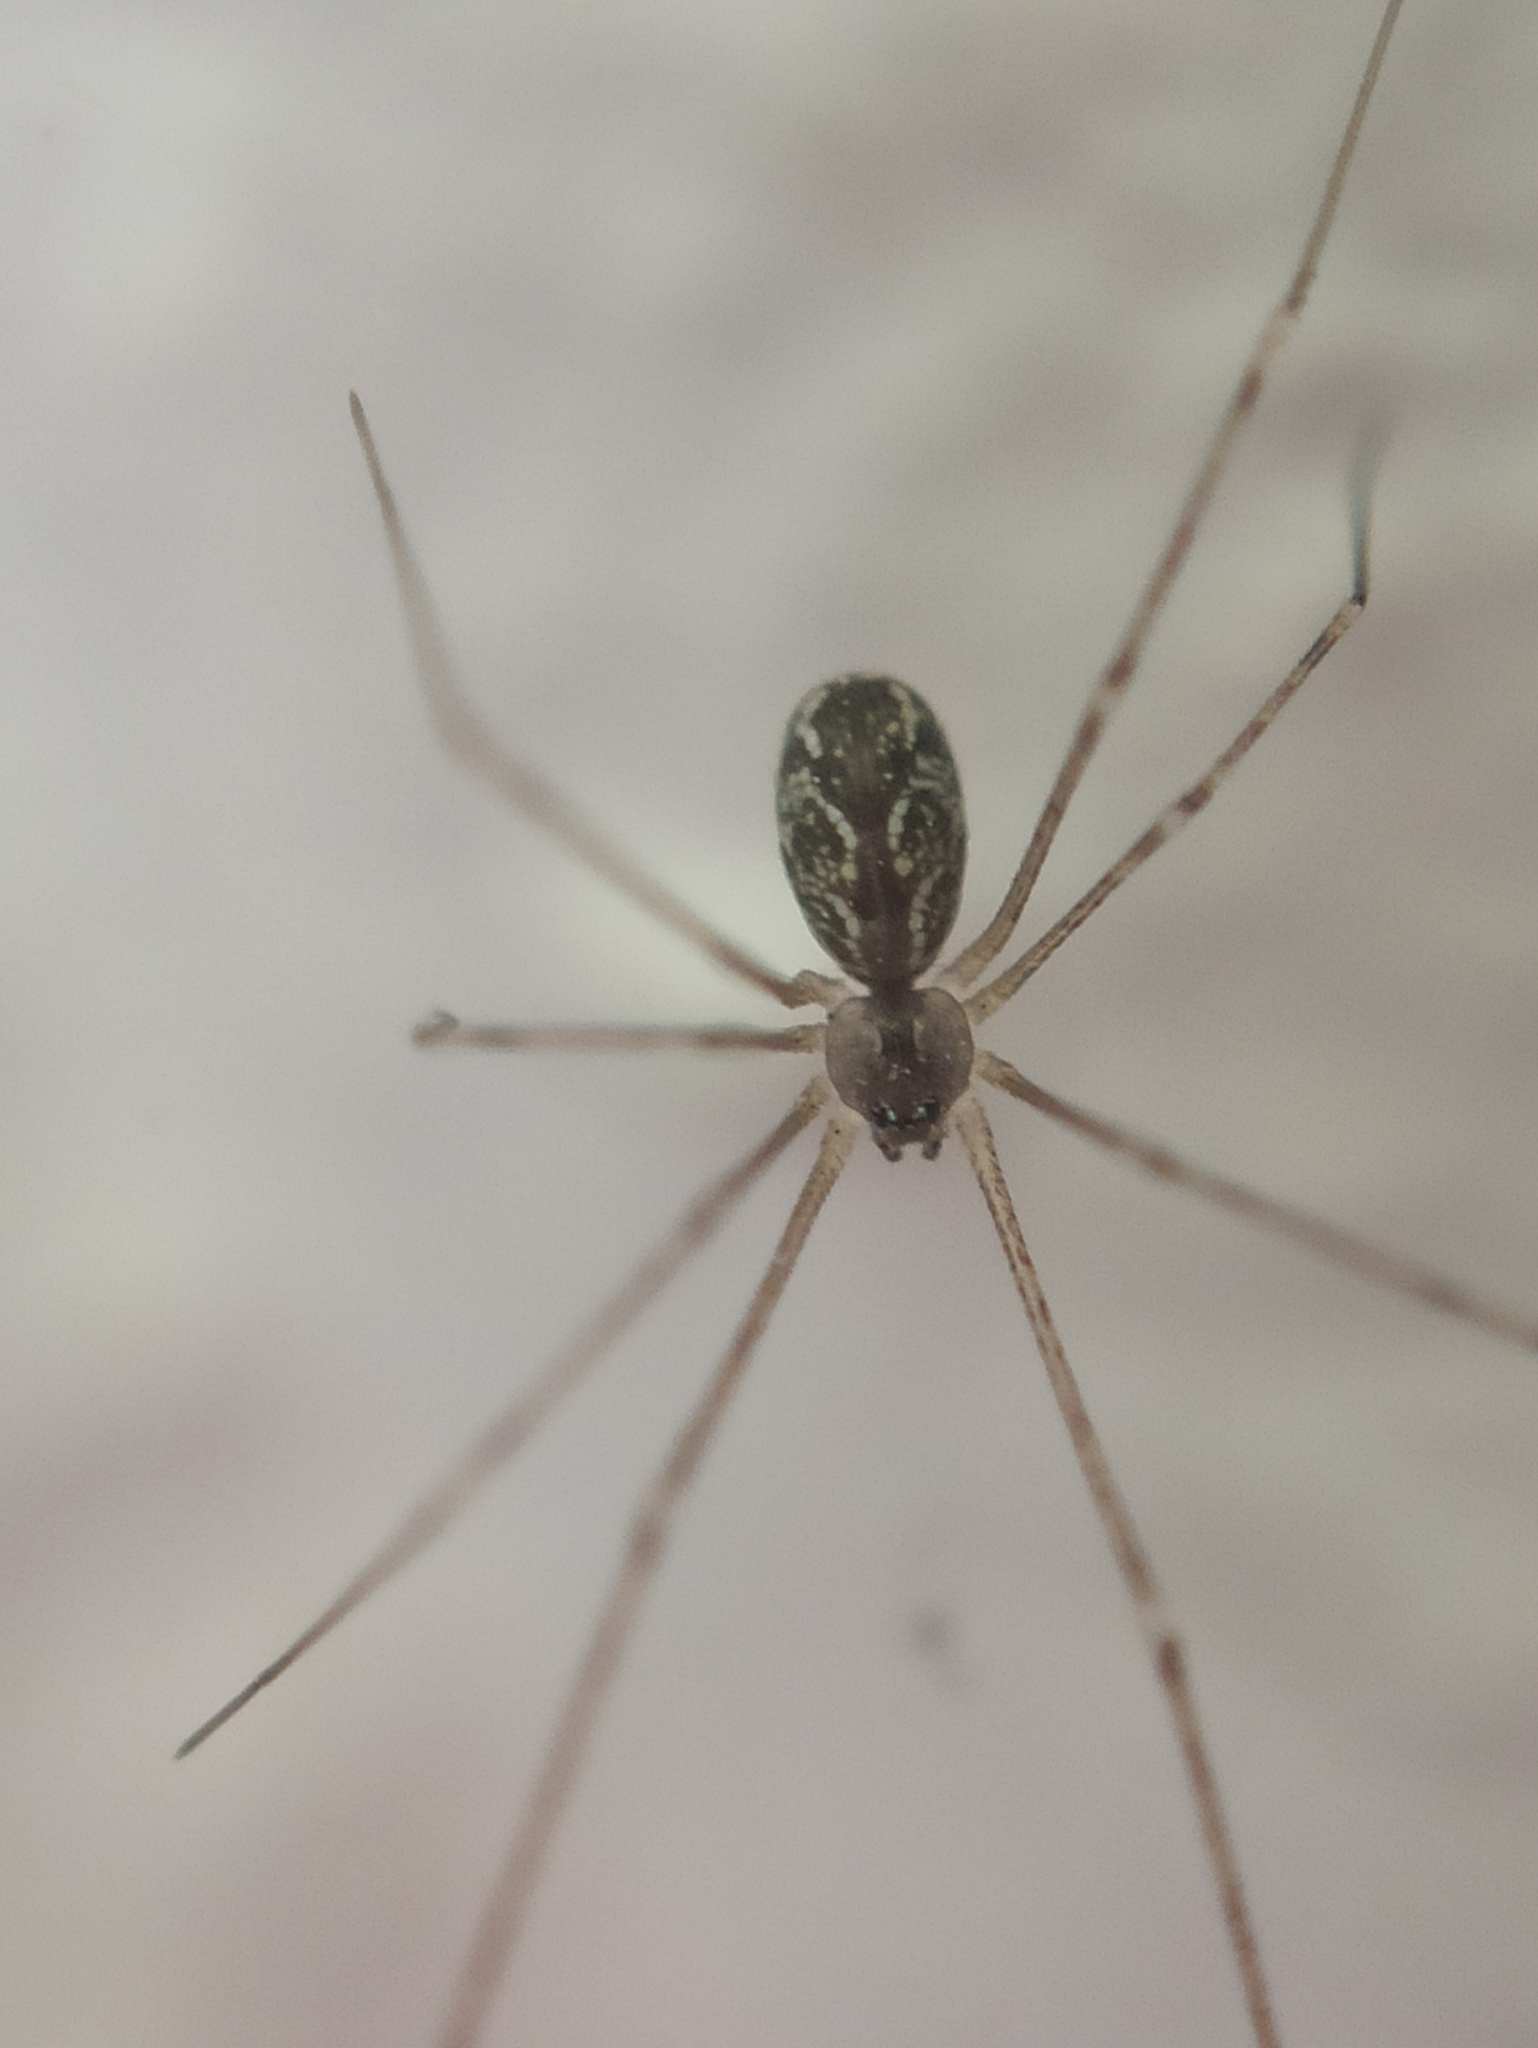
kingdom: Animalia
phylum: Arthropoda
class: Arachnida
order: Araneae
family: Pholcidae
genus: Holocnemus
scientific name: Holocnemus pluchei
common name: Marbled cellar spider
